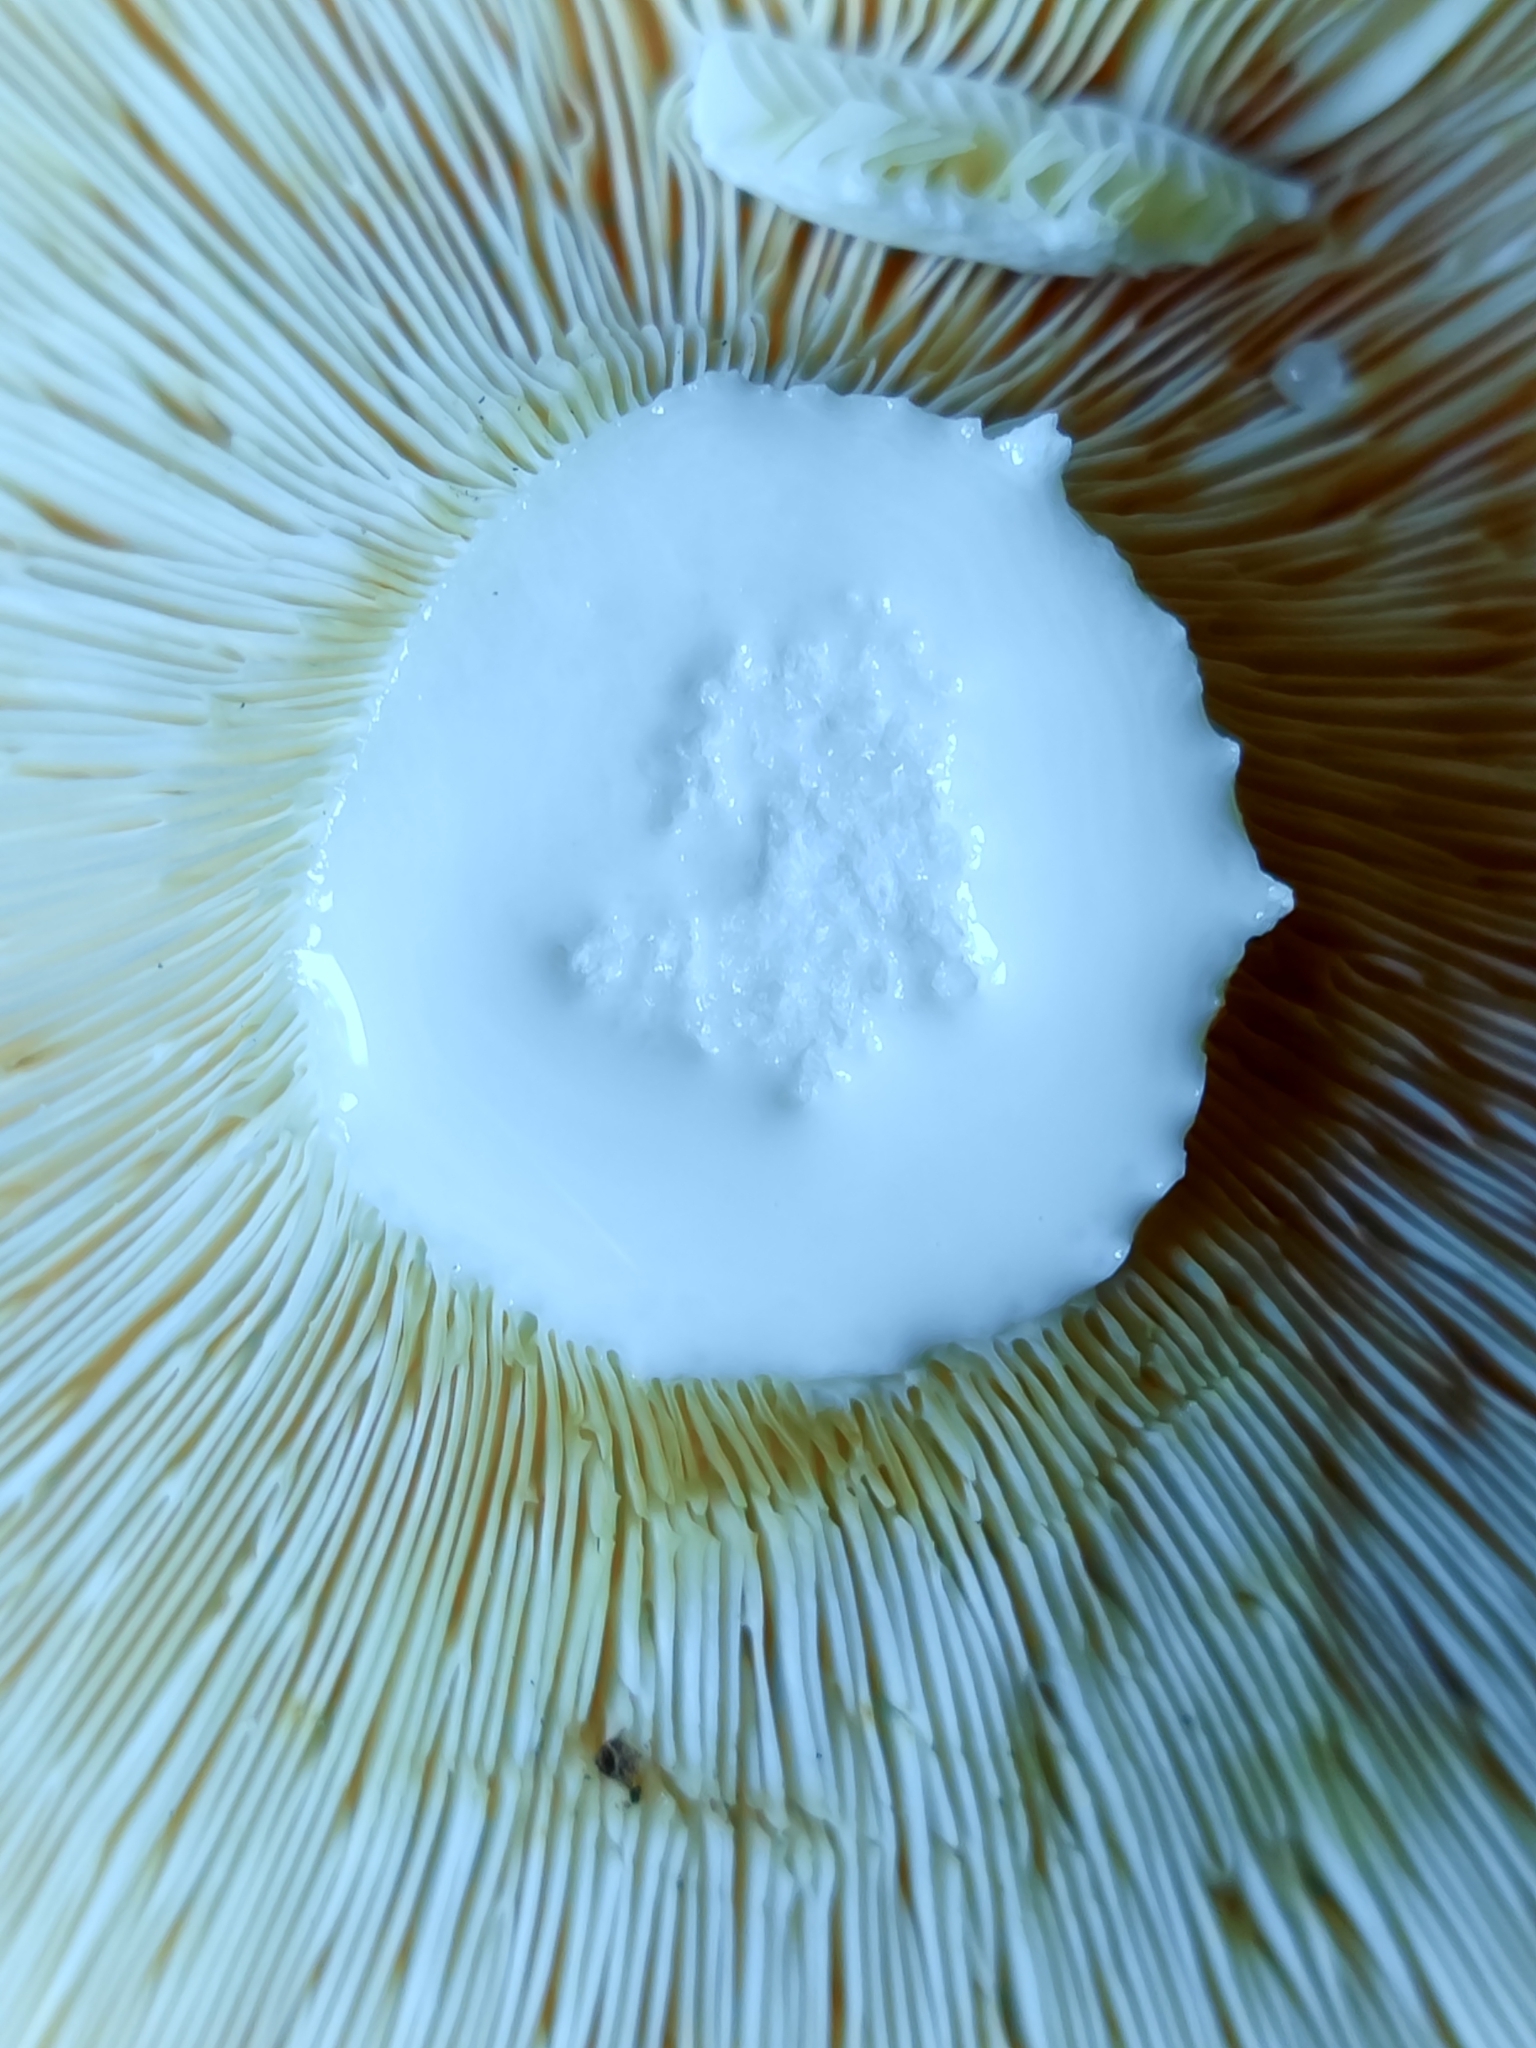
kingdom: Fungi
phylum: Basidiomycota
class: Agaricomycetes
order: Russulales
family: Russulaceae
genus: Lactifluus
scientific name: Lactifluus vellereus
